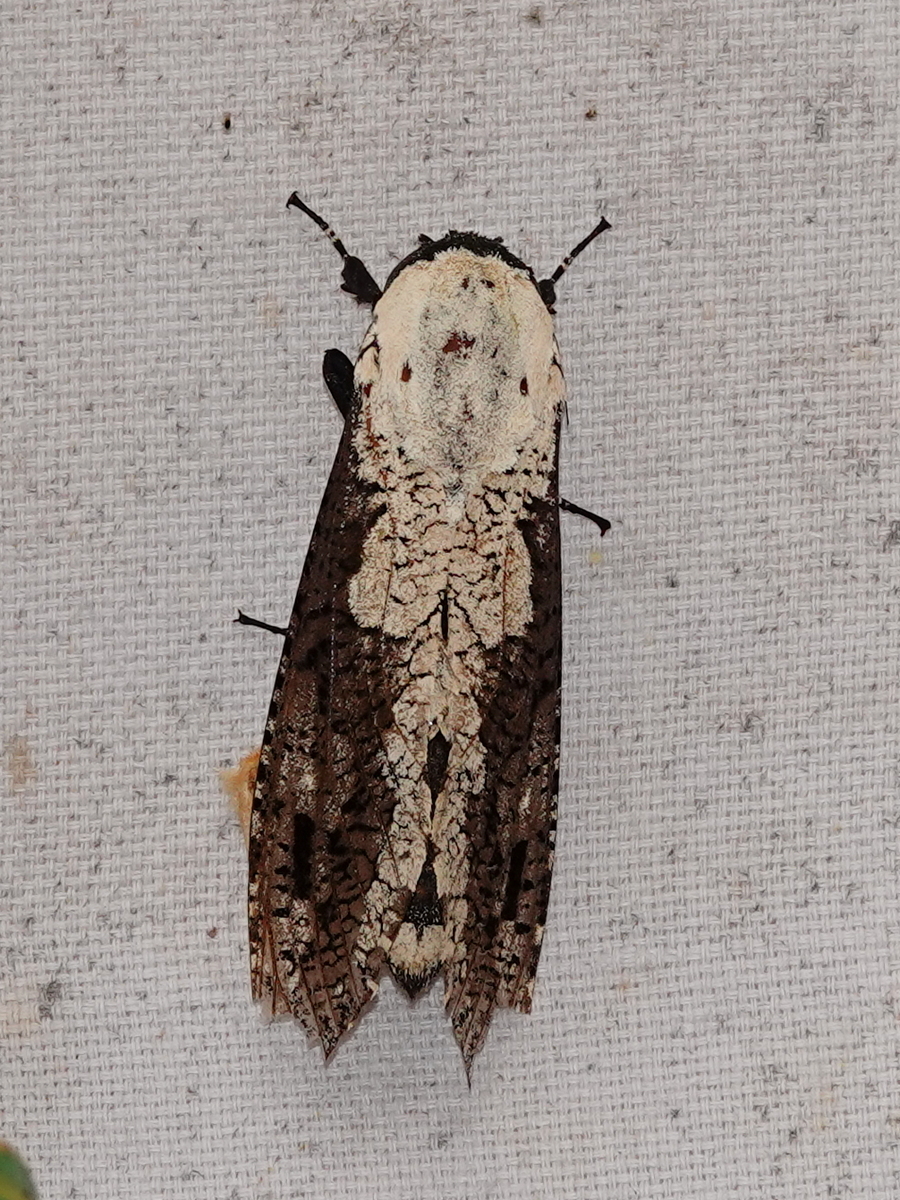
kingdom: Animalia
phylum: Arthropoda
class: Insecta
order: Lepidoptera
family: Cossidae
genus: Xyleutes
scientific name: Xyleutes persona
